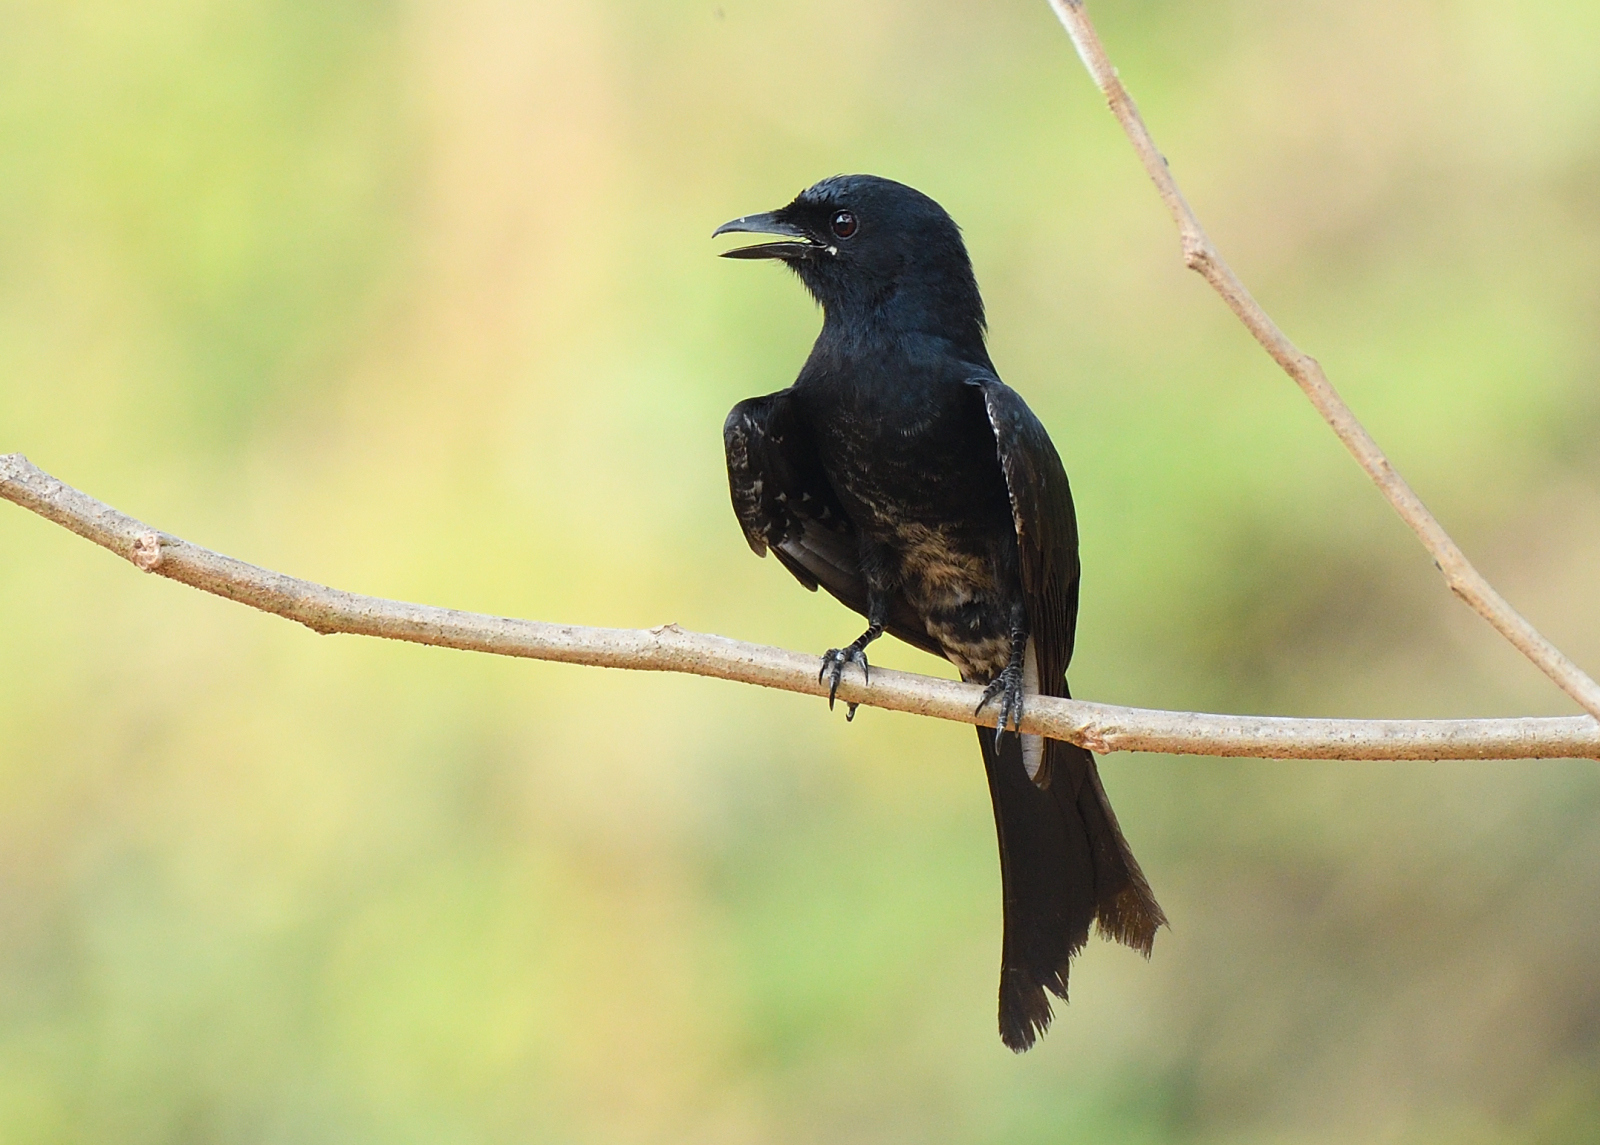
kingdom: Animalia
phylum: Chordata
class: Aves
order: Passeriformes
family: Dicruridae
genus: Dicrurus
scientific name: Dicrurus macrocercus
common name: Black drongo
